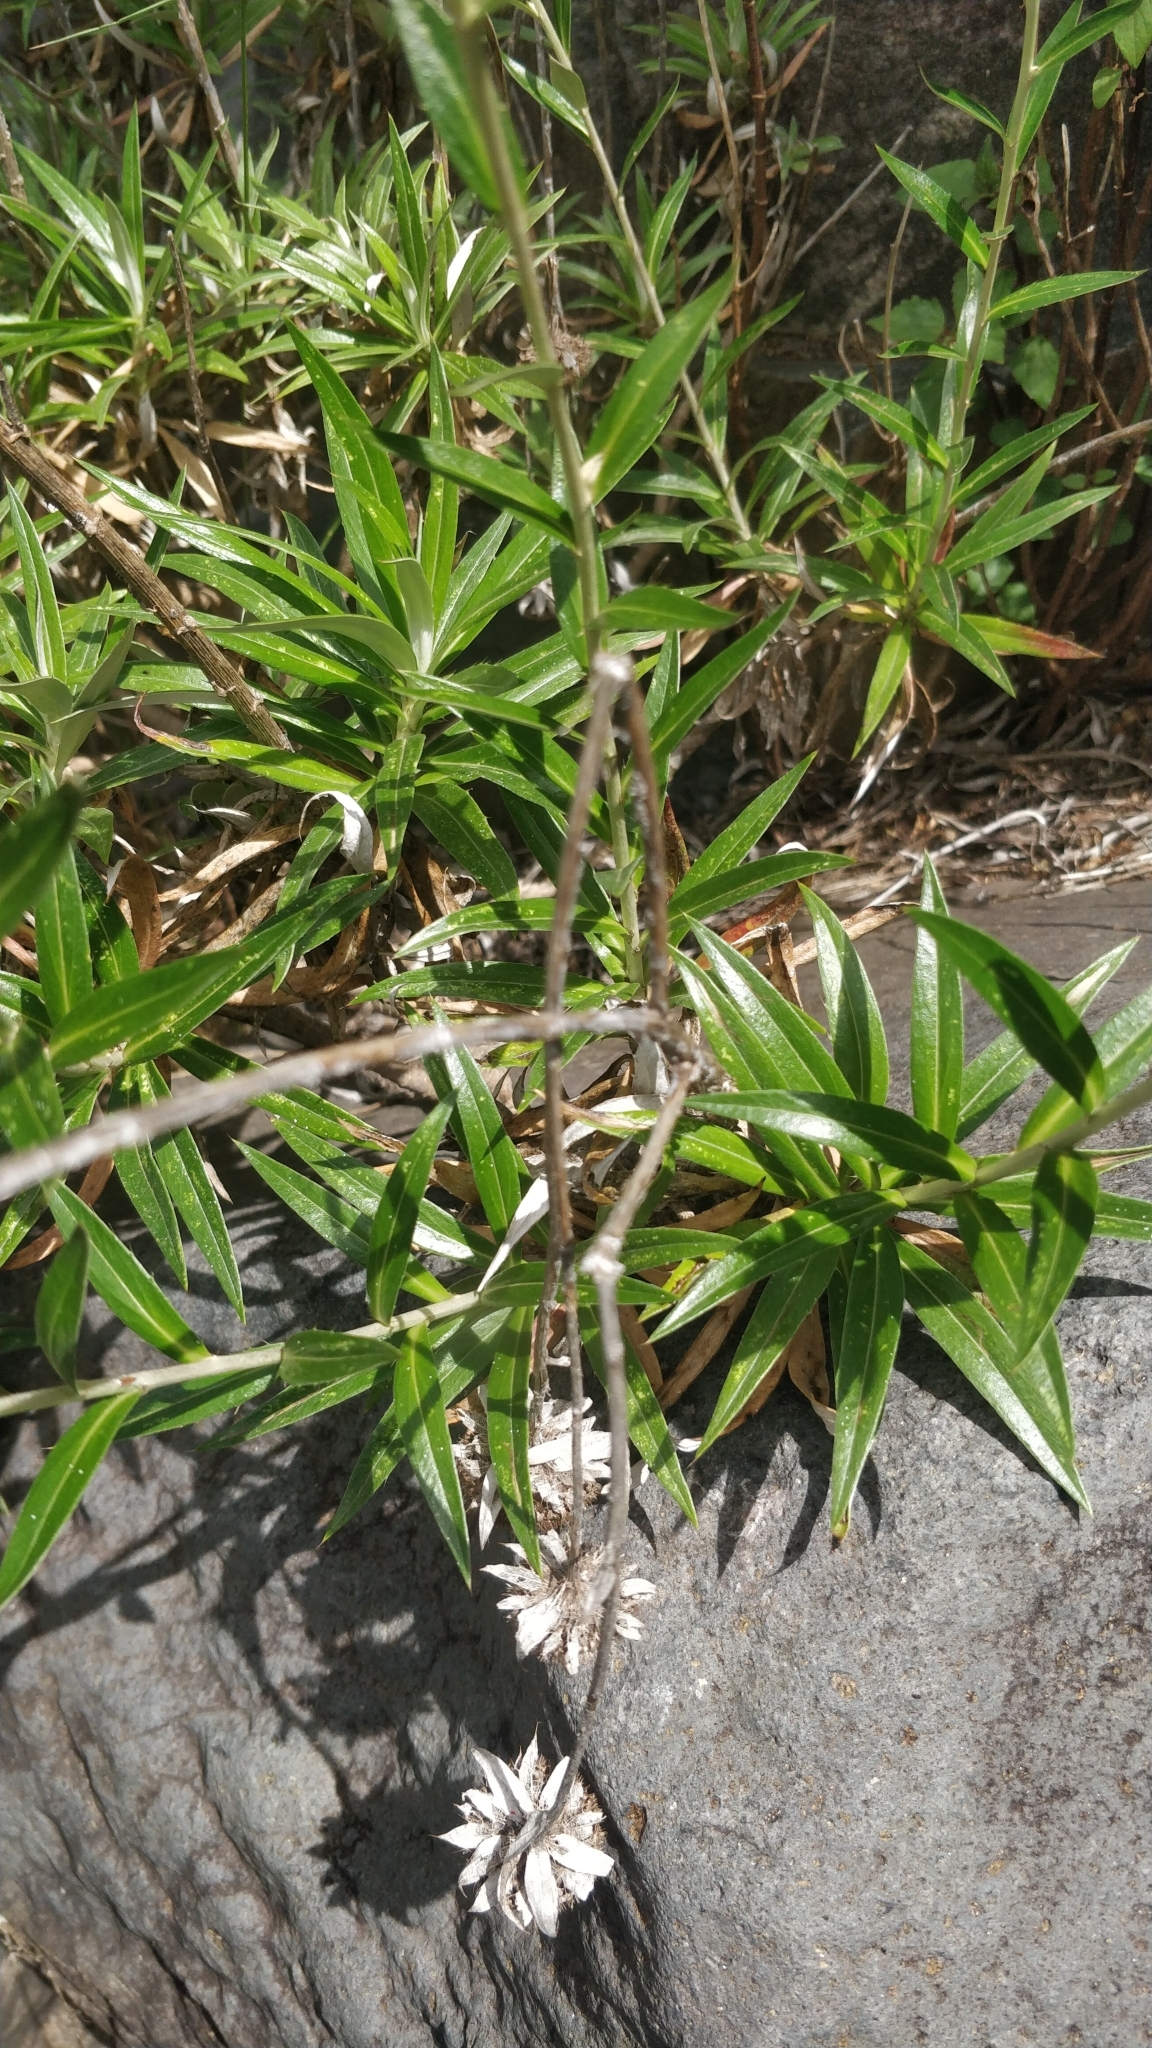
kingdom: Plantae
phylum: Tracheophyta
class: Magnoliopsida
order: Asterales
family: Asteraceae
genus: Carlina
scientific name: Carlina salicifolia
